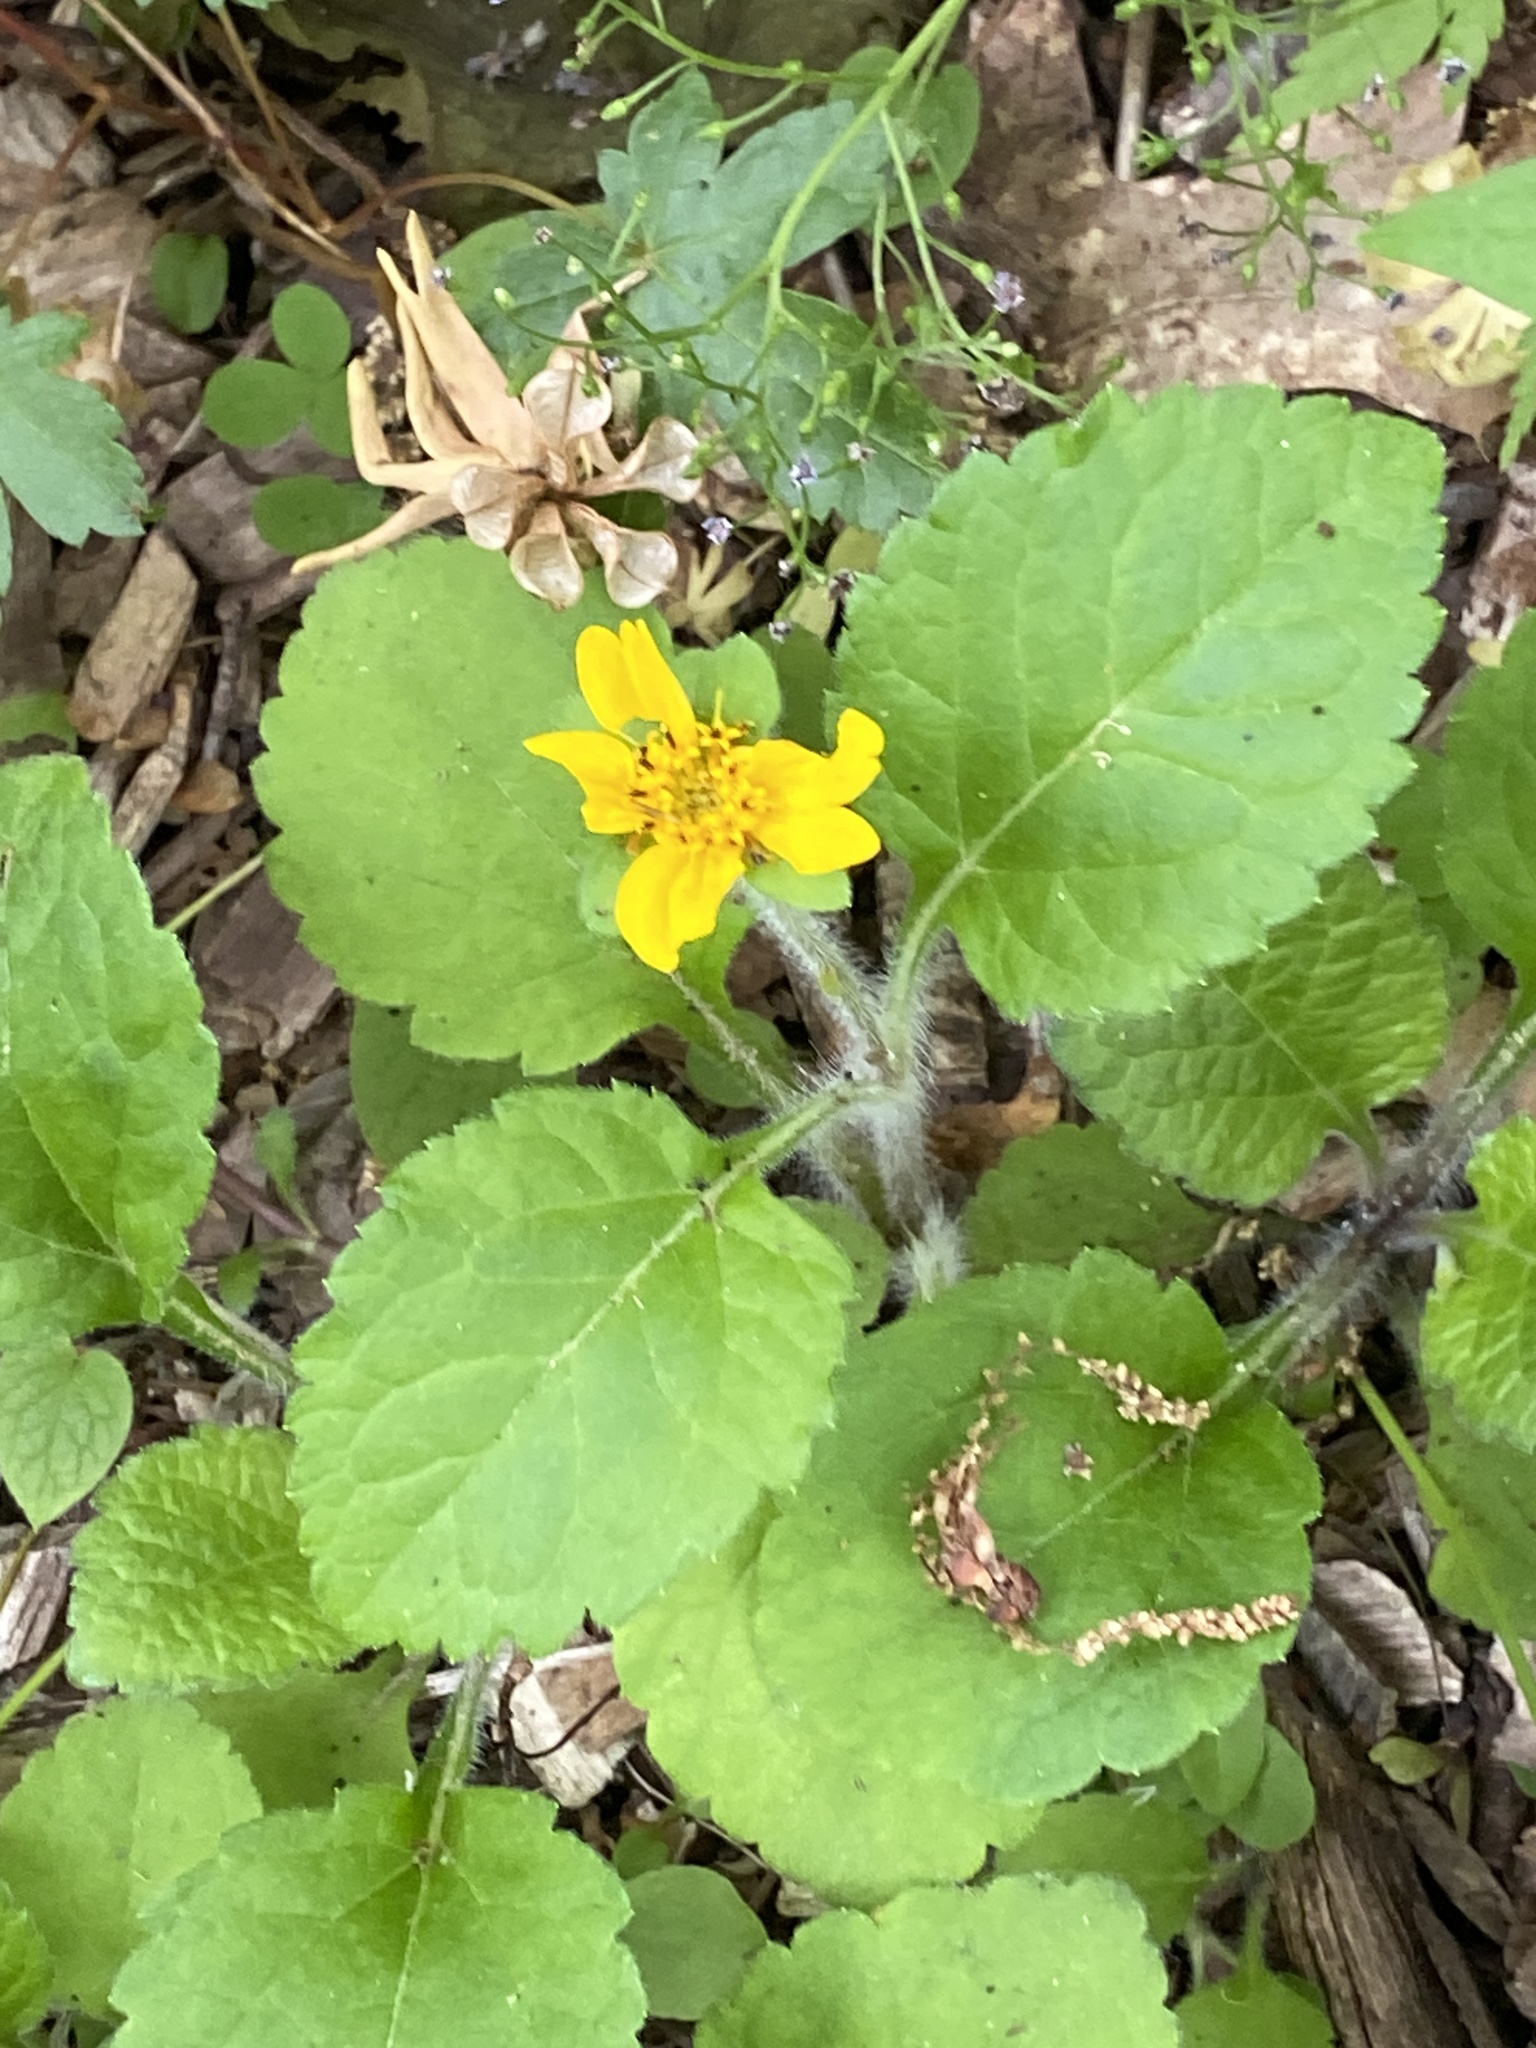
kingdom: Plantae
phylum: Tracheophyta
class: Magnoliopsida
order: Asterales
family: Asteraceae
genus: Chrysogonum
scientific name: Chrysogonum virginianum
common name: Golden-knee
